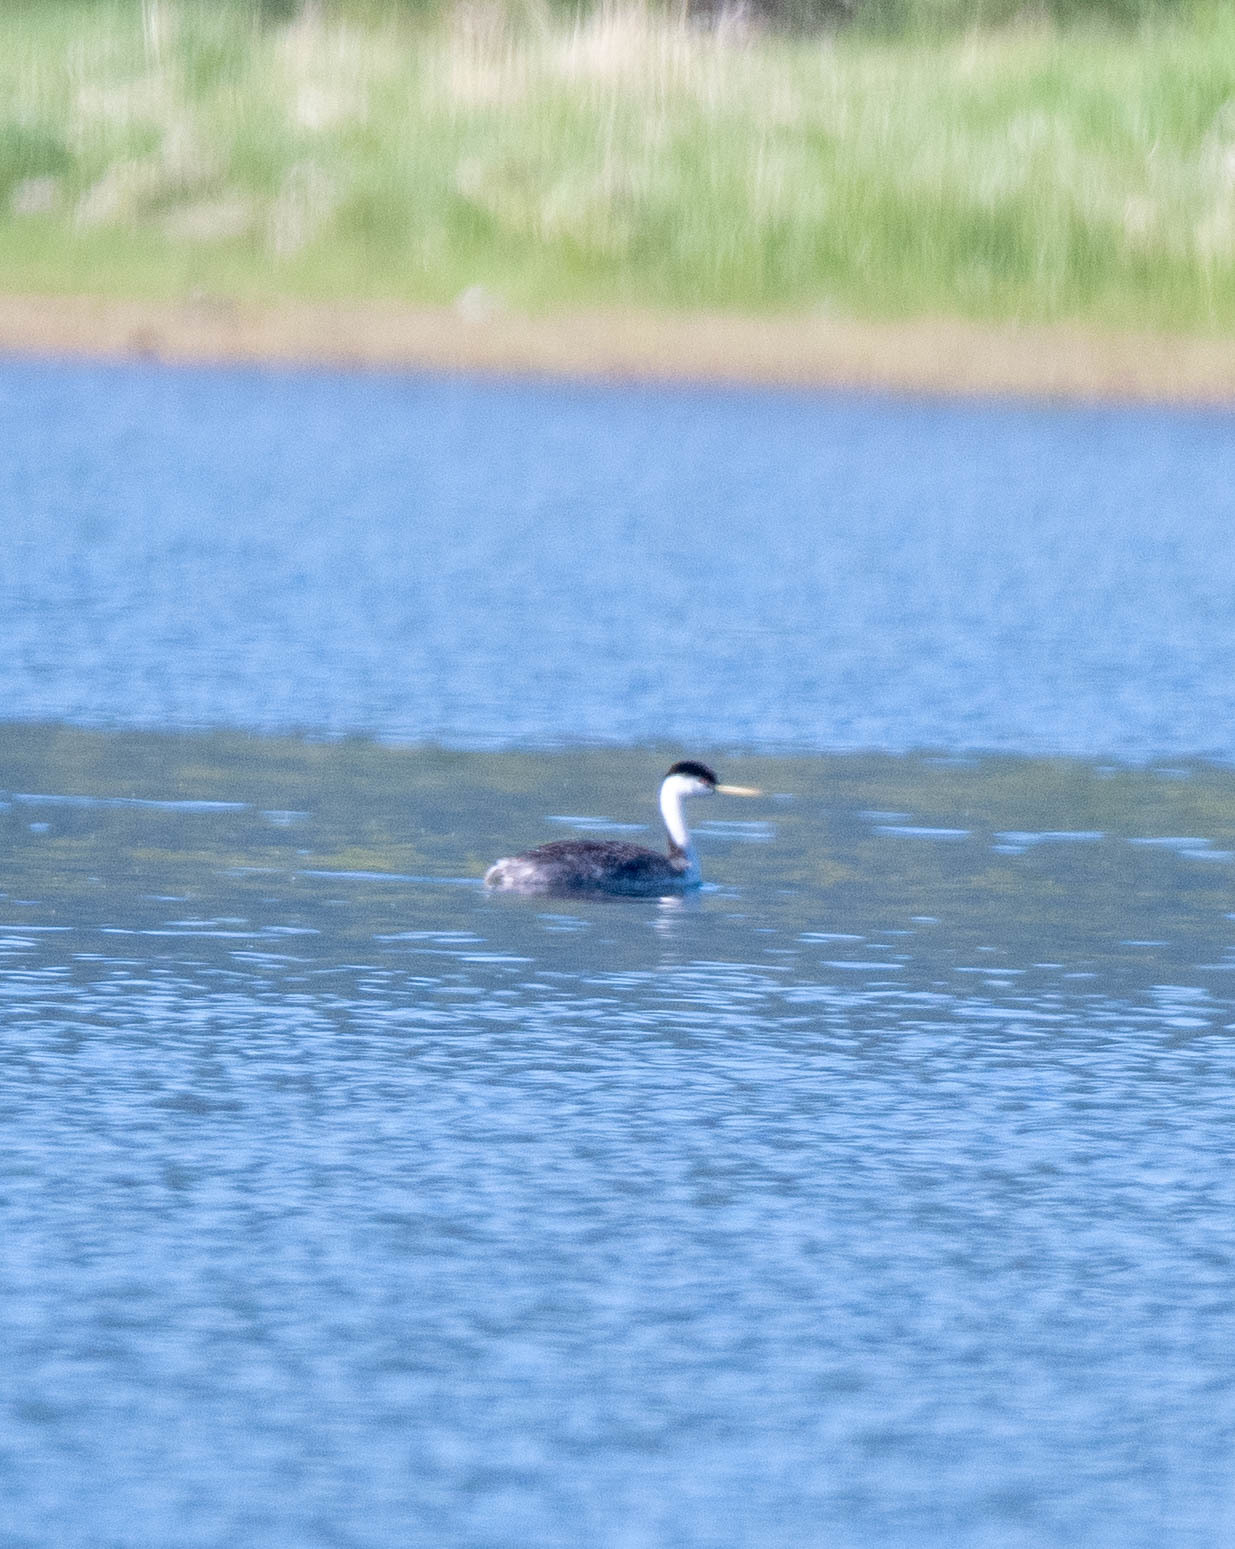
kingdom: Animalia
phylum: Chordata
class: Aves
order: Podicipediformes
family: Podicipedidae
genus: Aechmophorus
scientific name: Aechmophorus clarkii
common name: Clark's grebe
